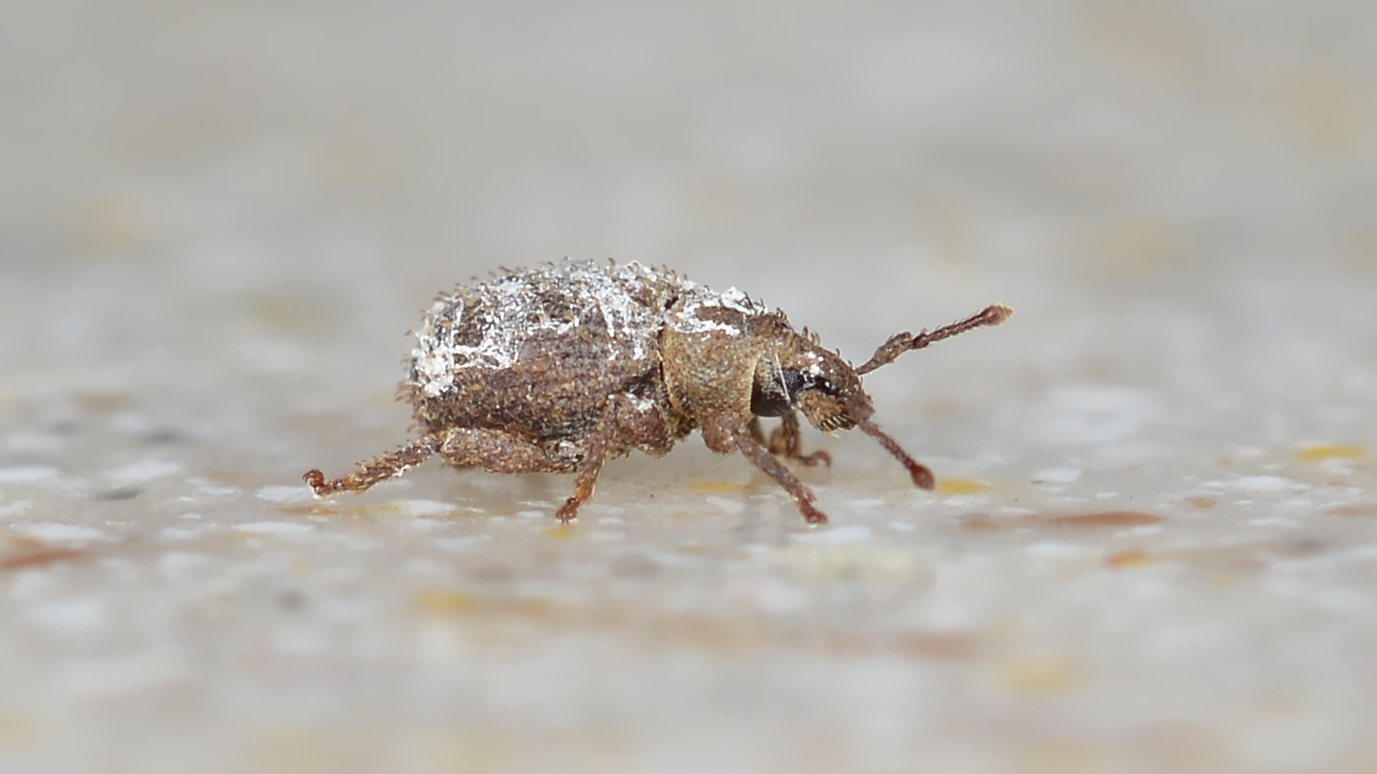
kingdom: Animalia
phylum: Arthropoda
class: Insecta
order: Coleoptera
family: Curculionidae
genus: Cathormiocerus
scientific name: Cathormiocerus aristatus
